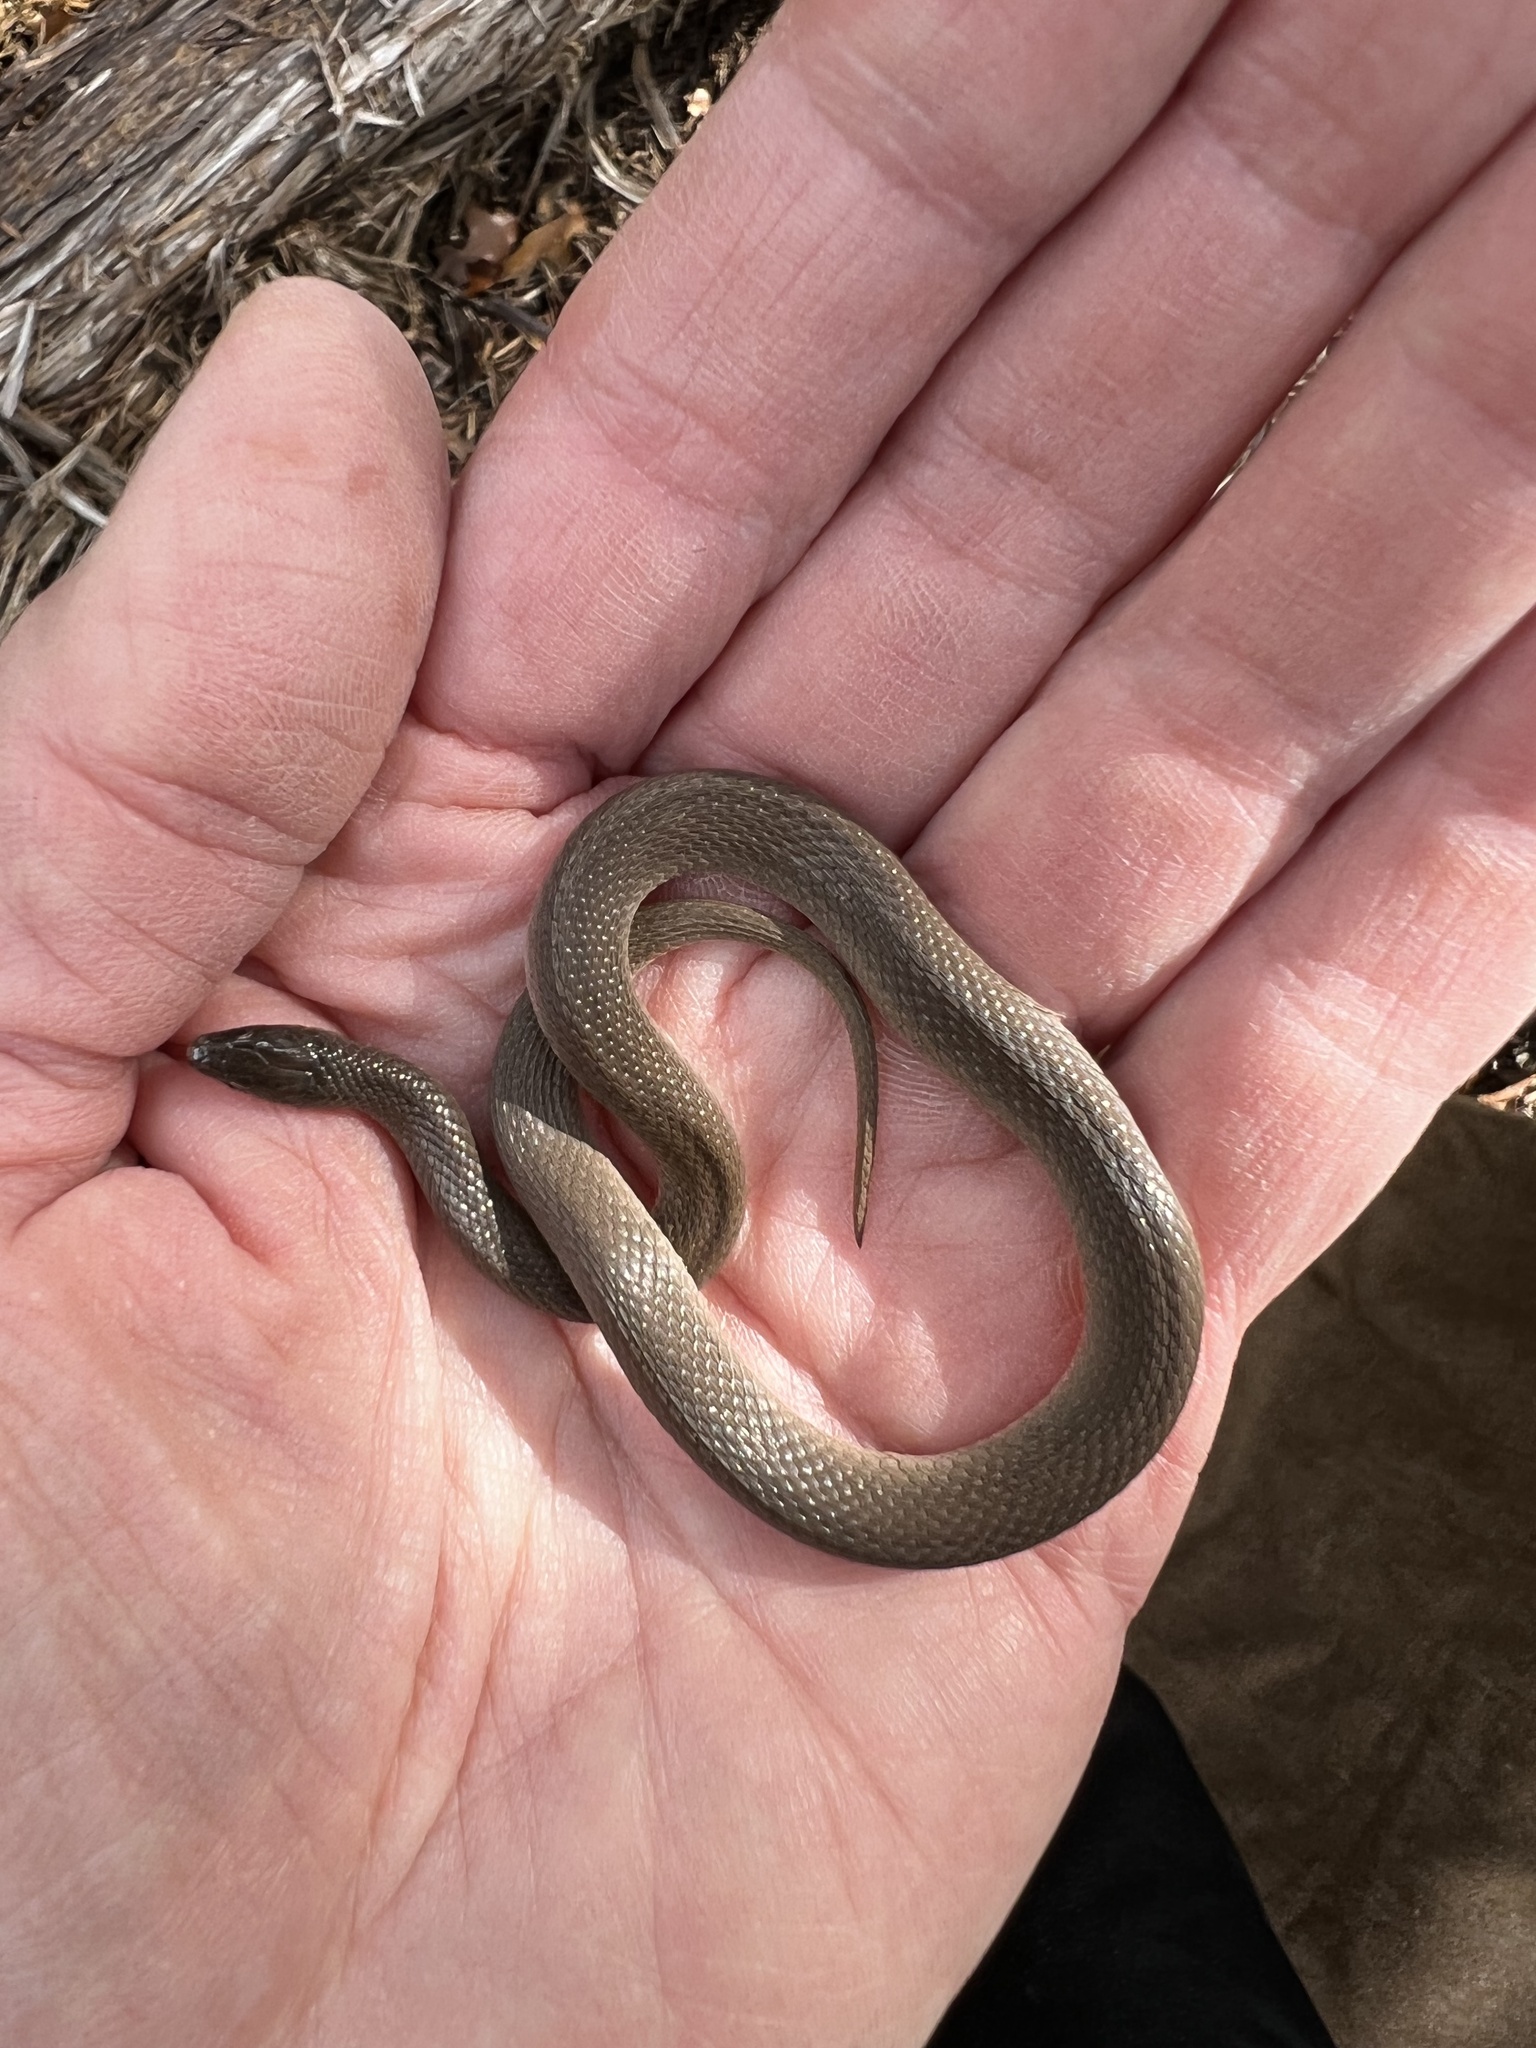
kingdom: Animalia
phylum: Chordata
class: Squamata
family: Colubridae
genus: Haldea
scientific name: Haldea striatula
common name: Rough earth snake
